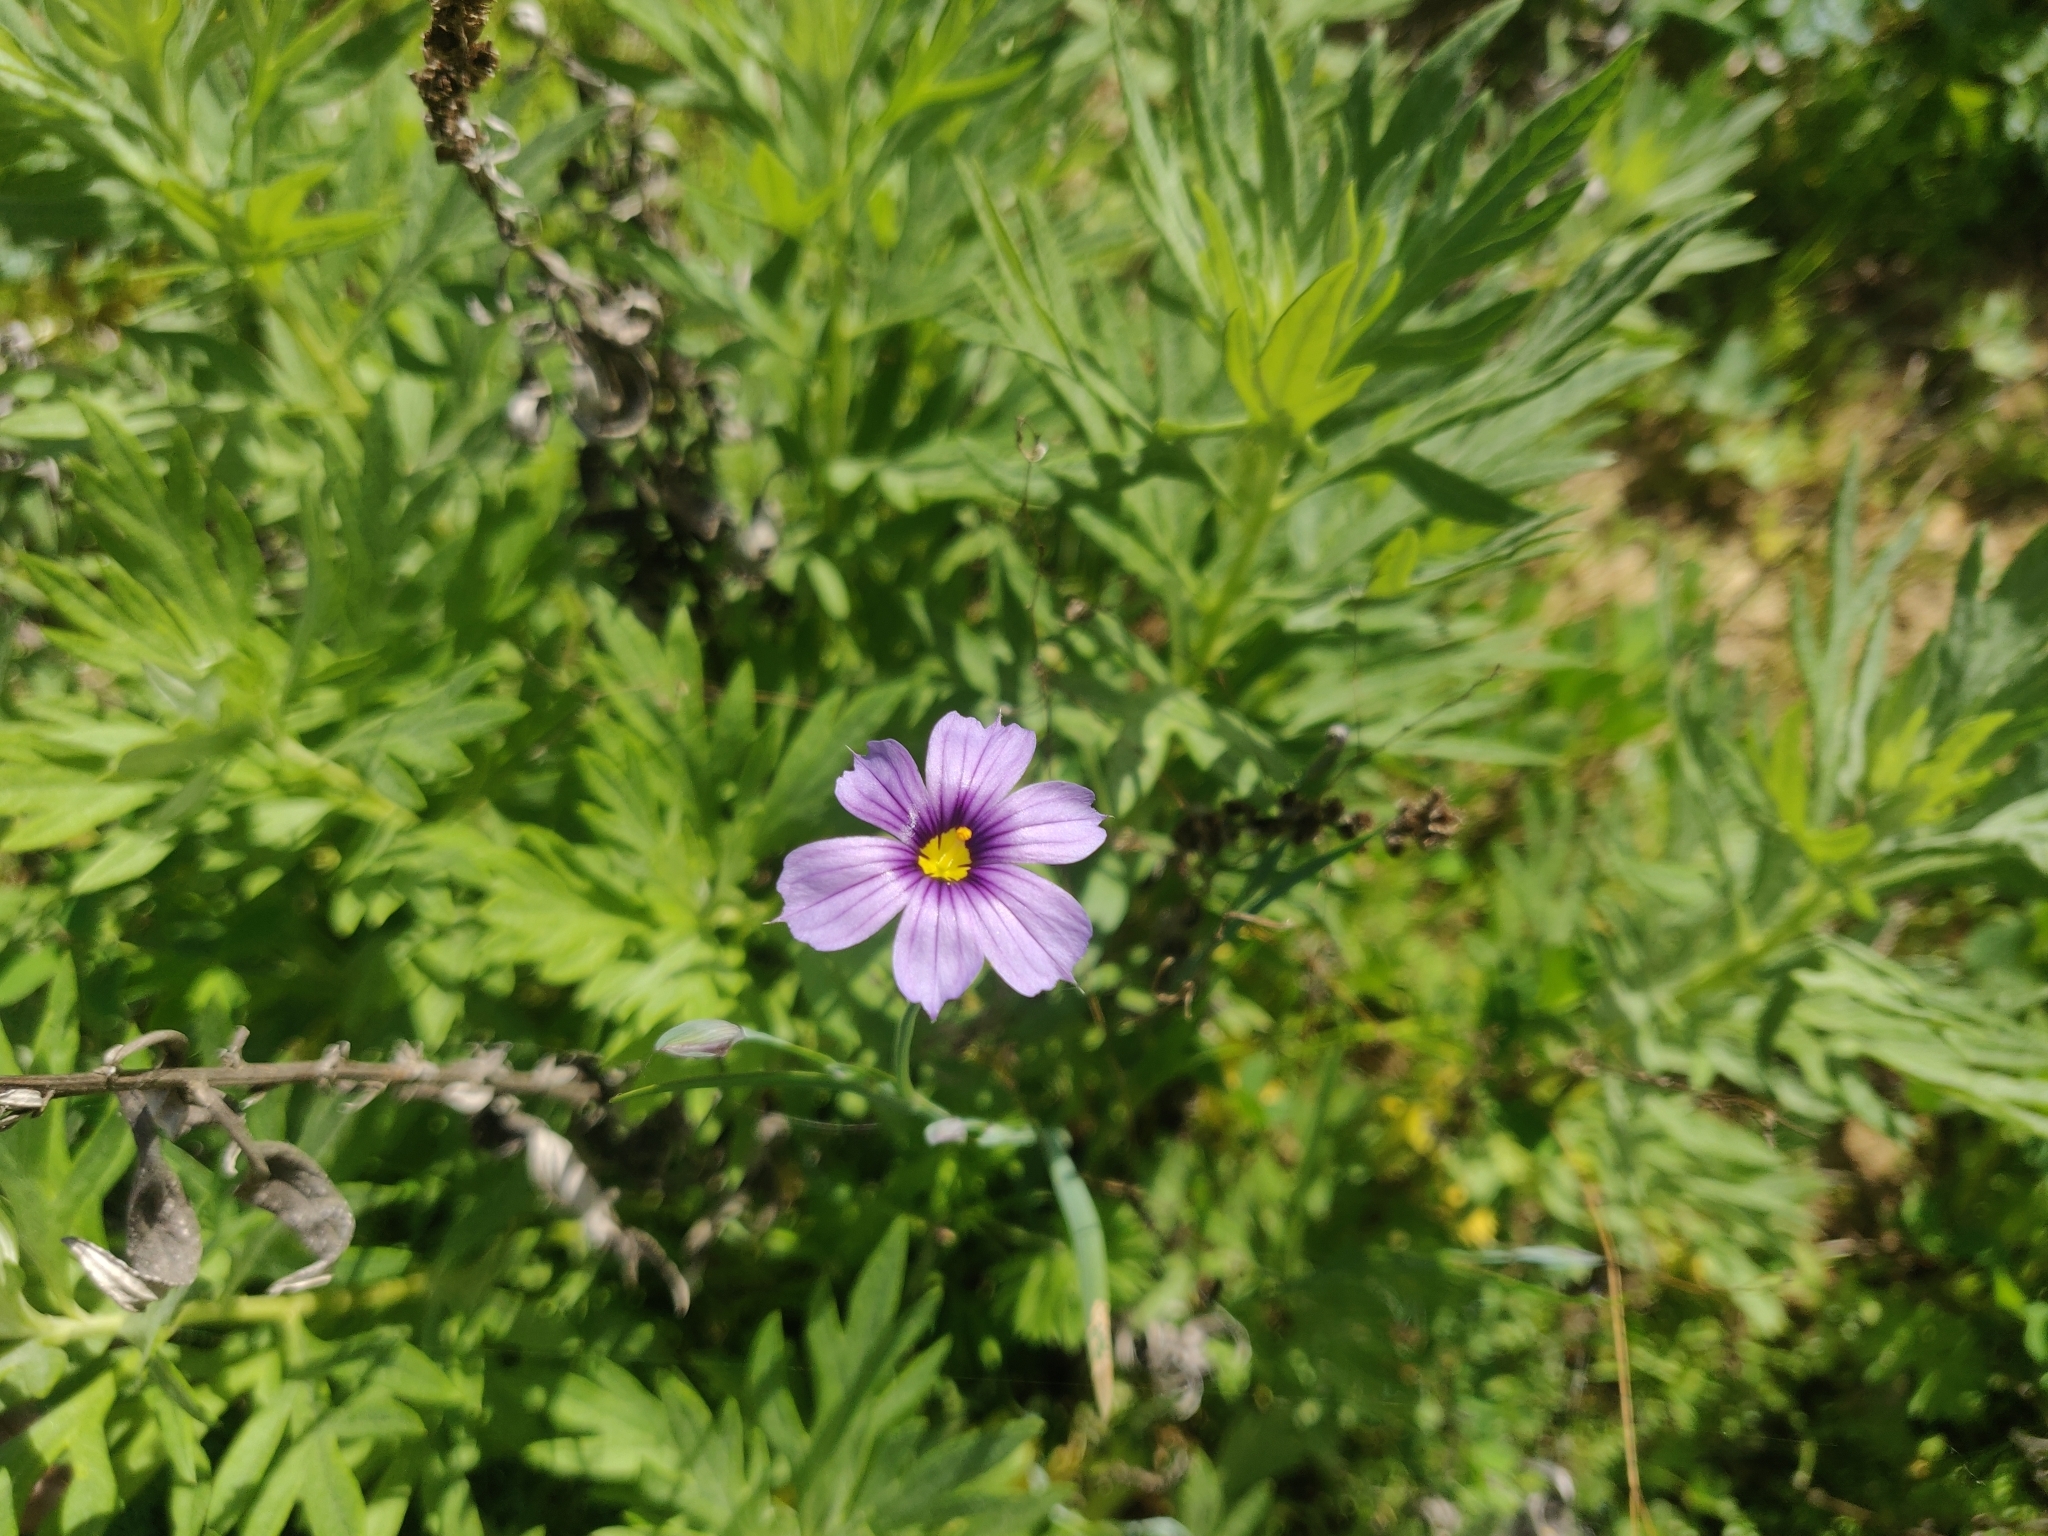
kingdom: Plantae
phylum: Tracheophyta
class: Liliopsida
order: Asparagales
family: Iridaceae
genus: Sisyrinchium
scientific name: Sisyrinchium bellum
